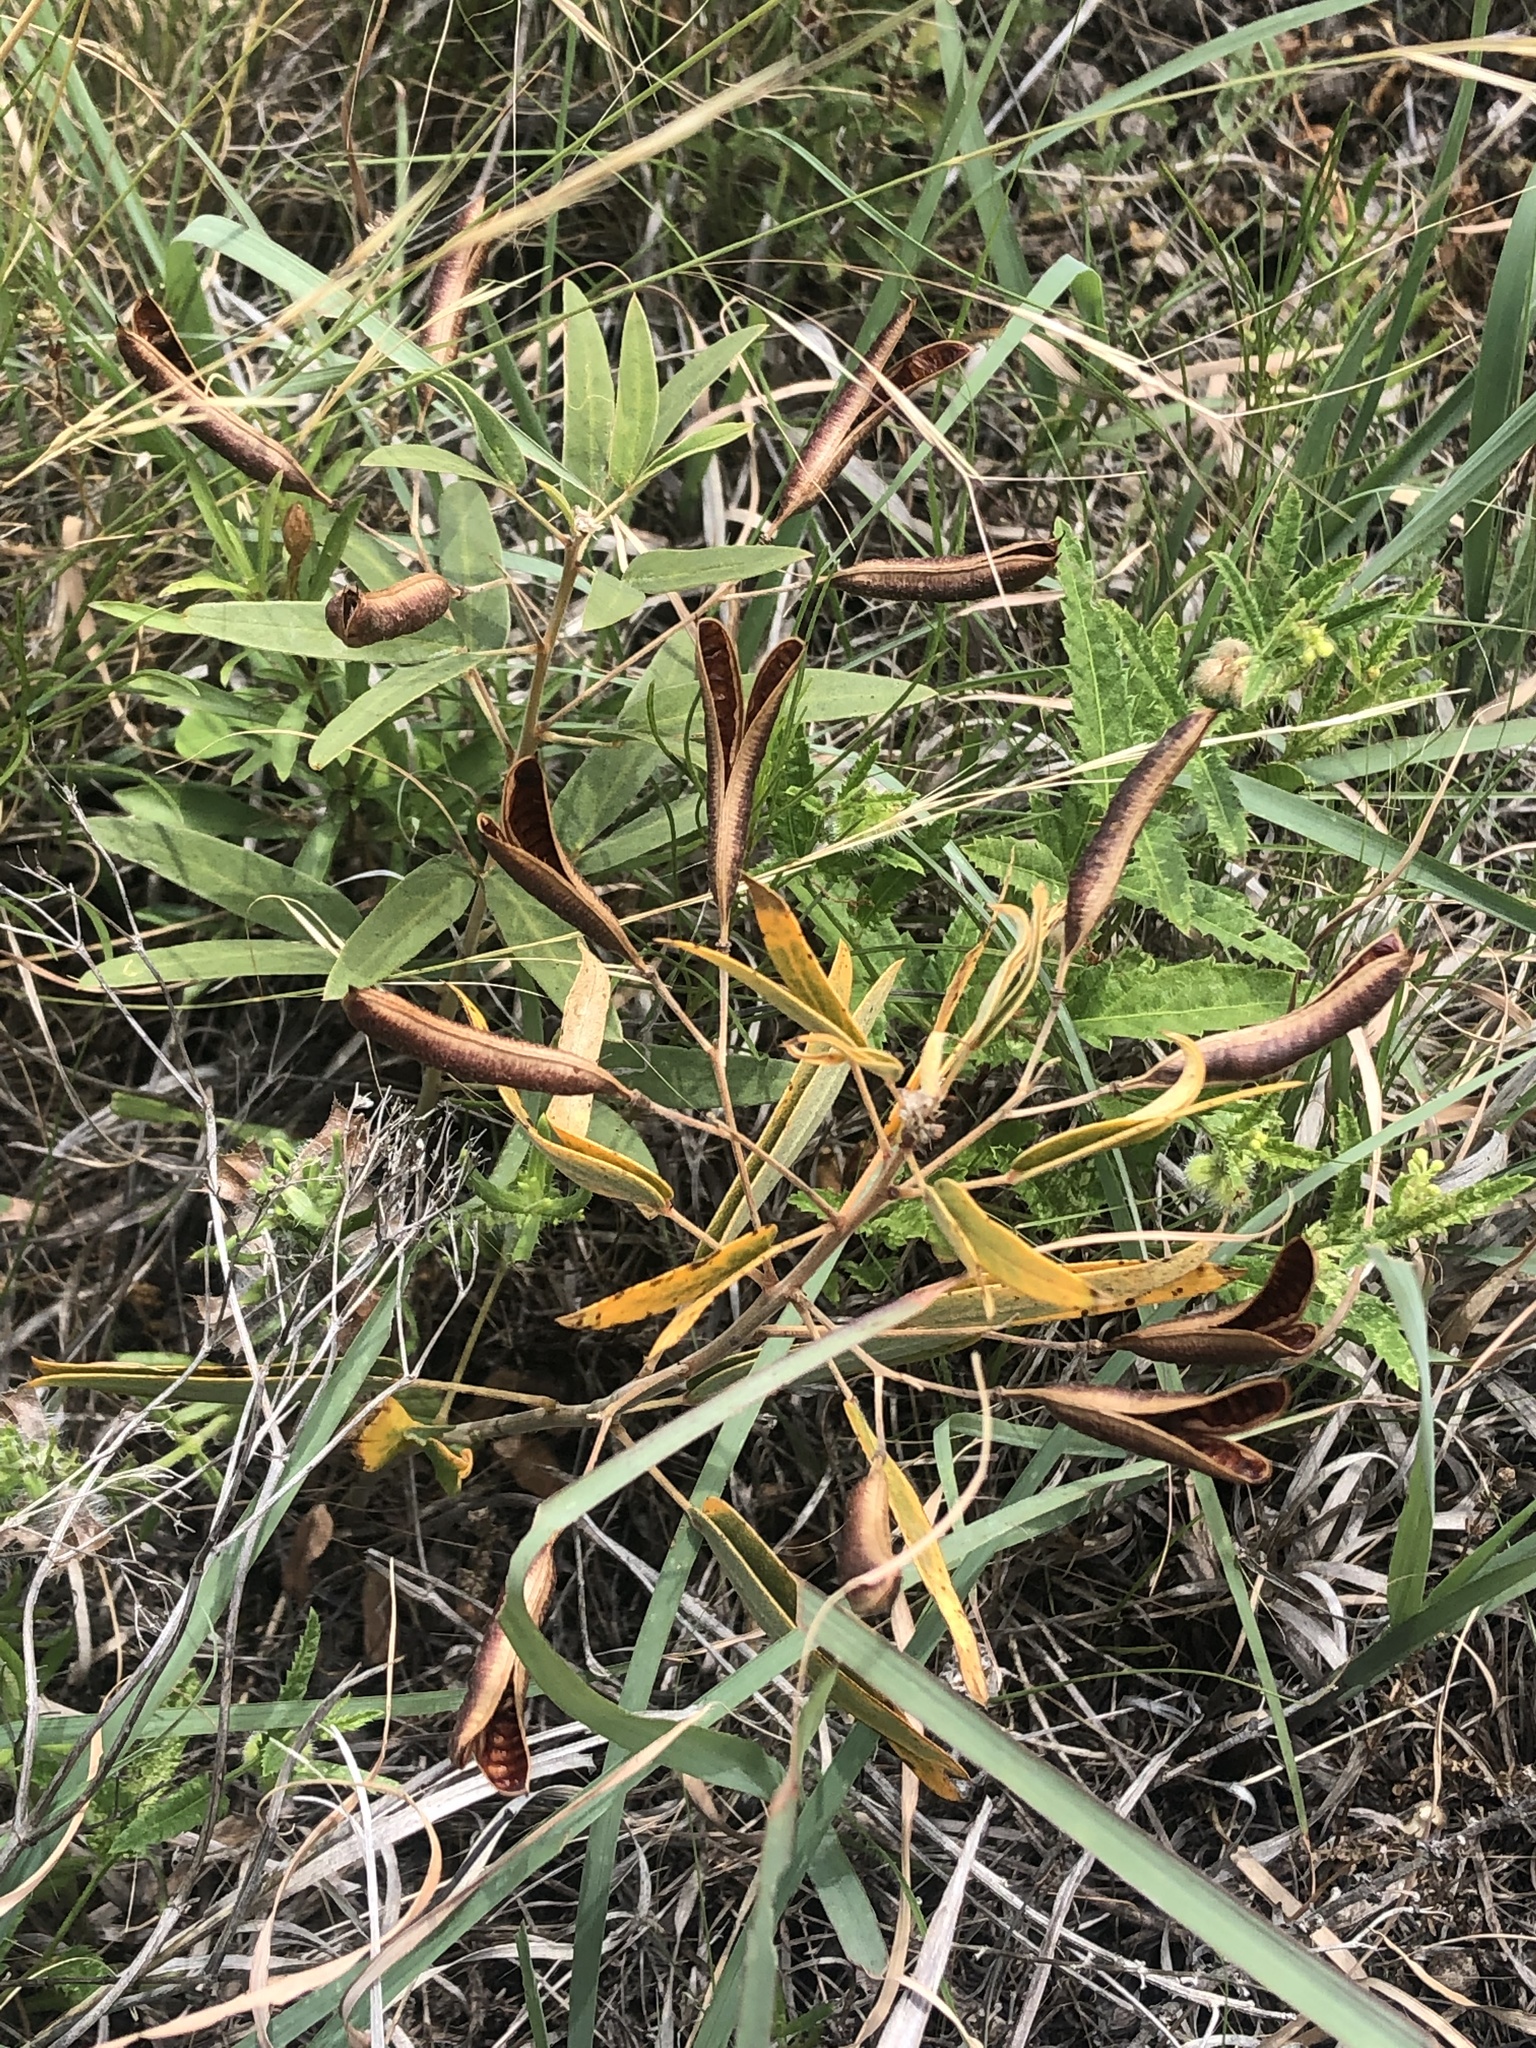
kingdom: Plantae
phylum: Tracheophyta
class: Magnoliopsida
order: Fabales
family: Fabaceae
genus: Senna
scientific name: Senna roemeriana
